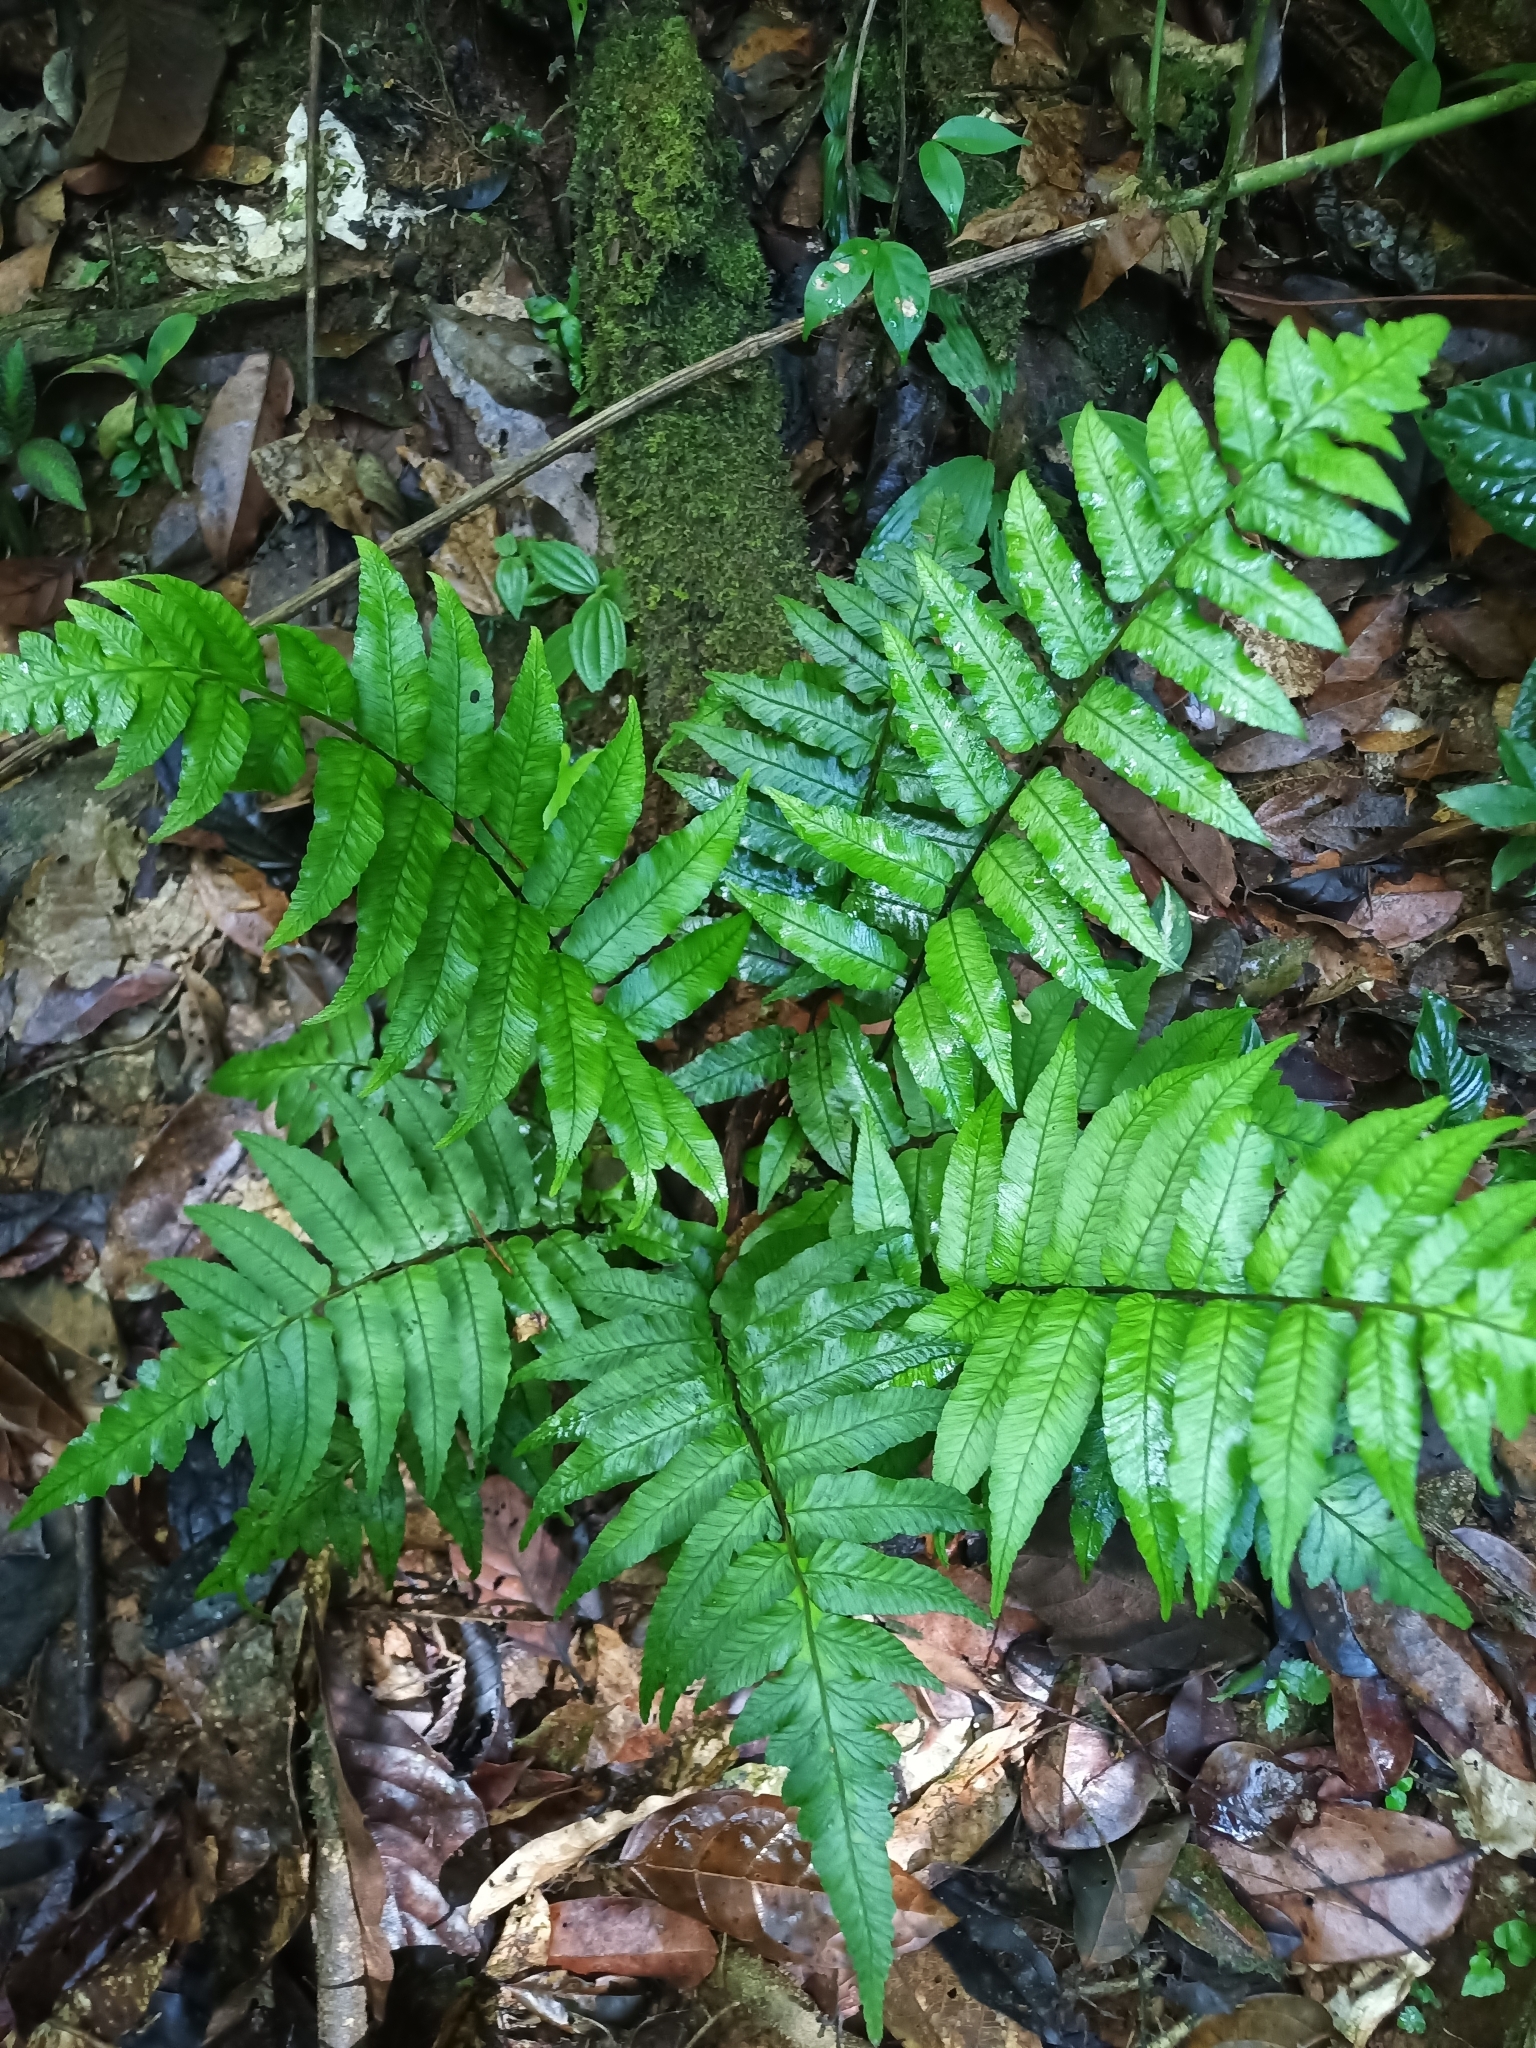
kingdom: Plantae
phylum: Tracheophyta
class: Polypodiopsida
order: Polypodiales
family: Athyriaceae
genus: Diplazium
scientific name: Diplazium grandifolium
